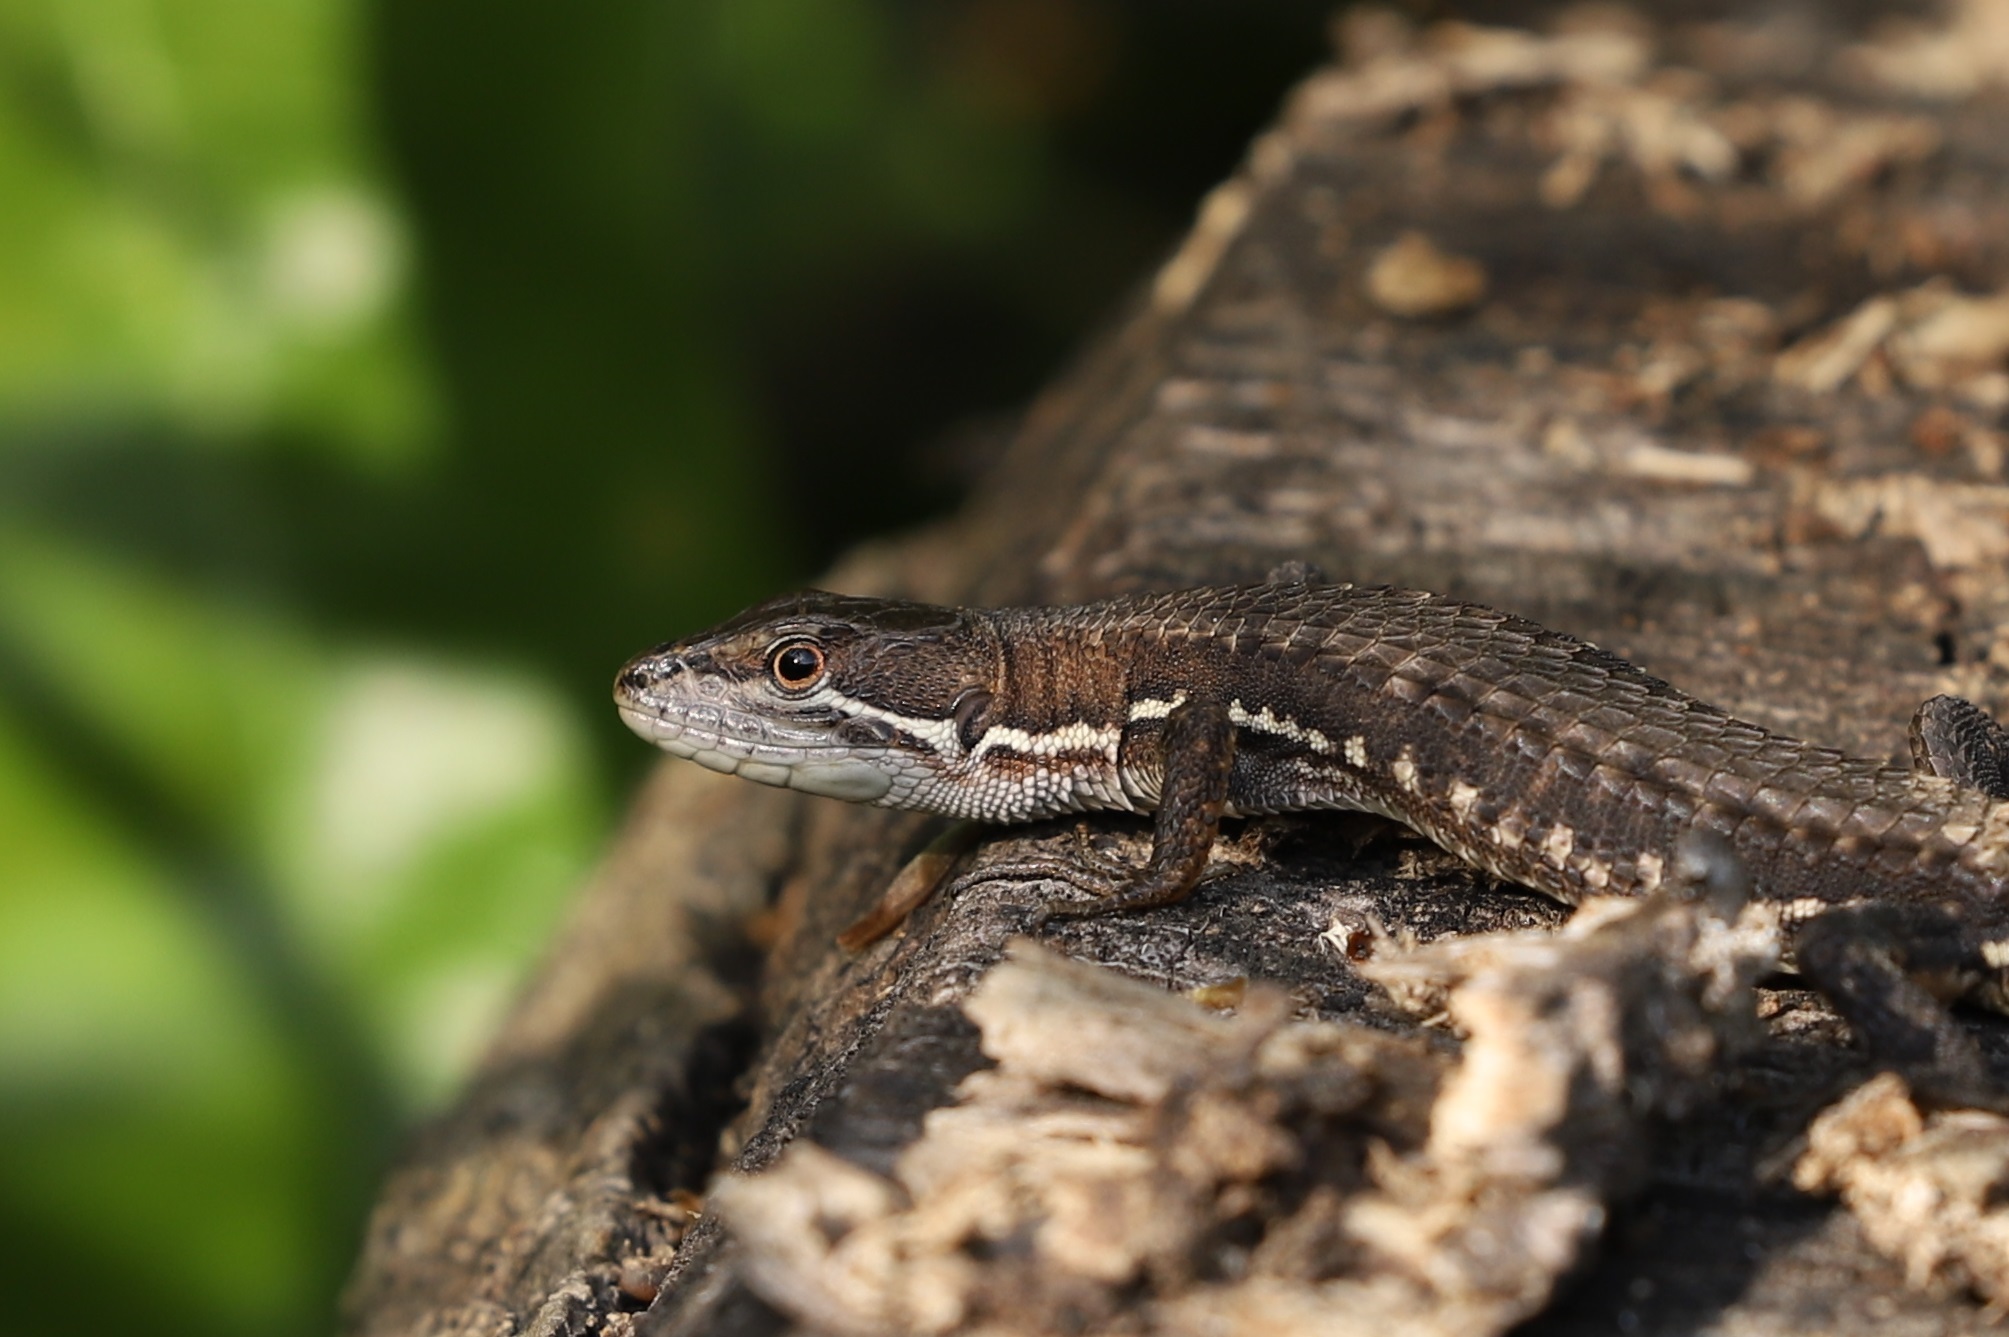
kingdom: Animalia
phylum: Chordata
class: Squamata
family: Lacertidae
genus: Takydromus
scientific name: Takydromus tachydromoides
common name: Japanese grass lizard
